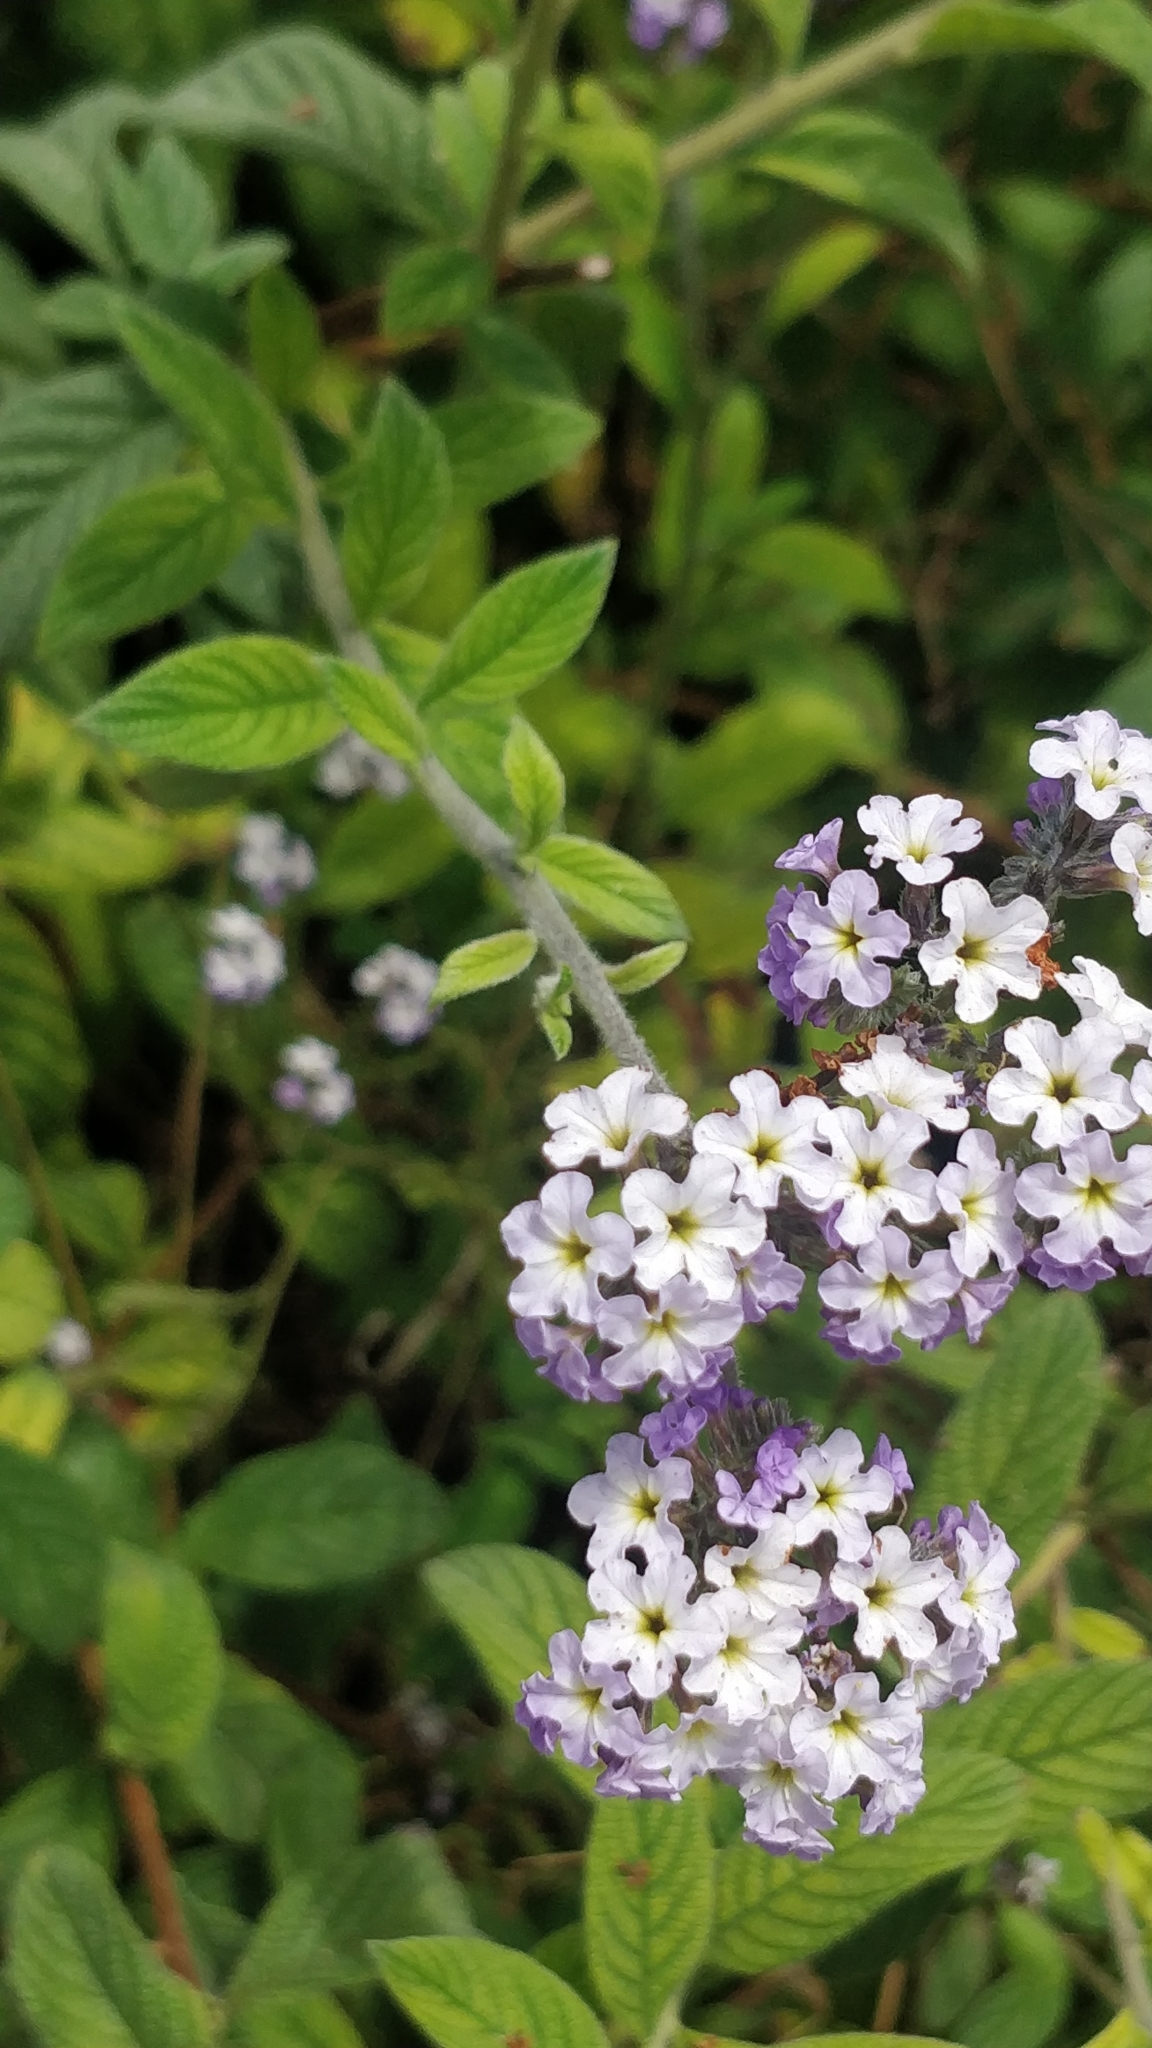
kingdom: Plantae
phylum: Tracheophyta
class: Magnoliopsida
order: Boraginales
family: Heliotropiaceae
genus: Heliotropium
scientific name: Heliotropium arborescens
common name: Cherry-pie
